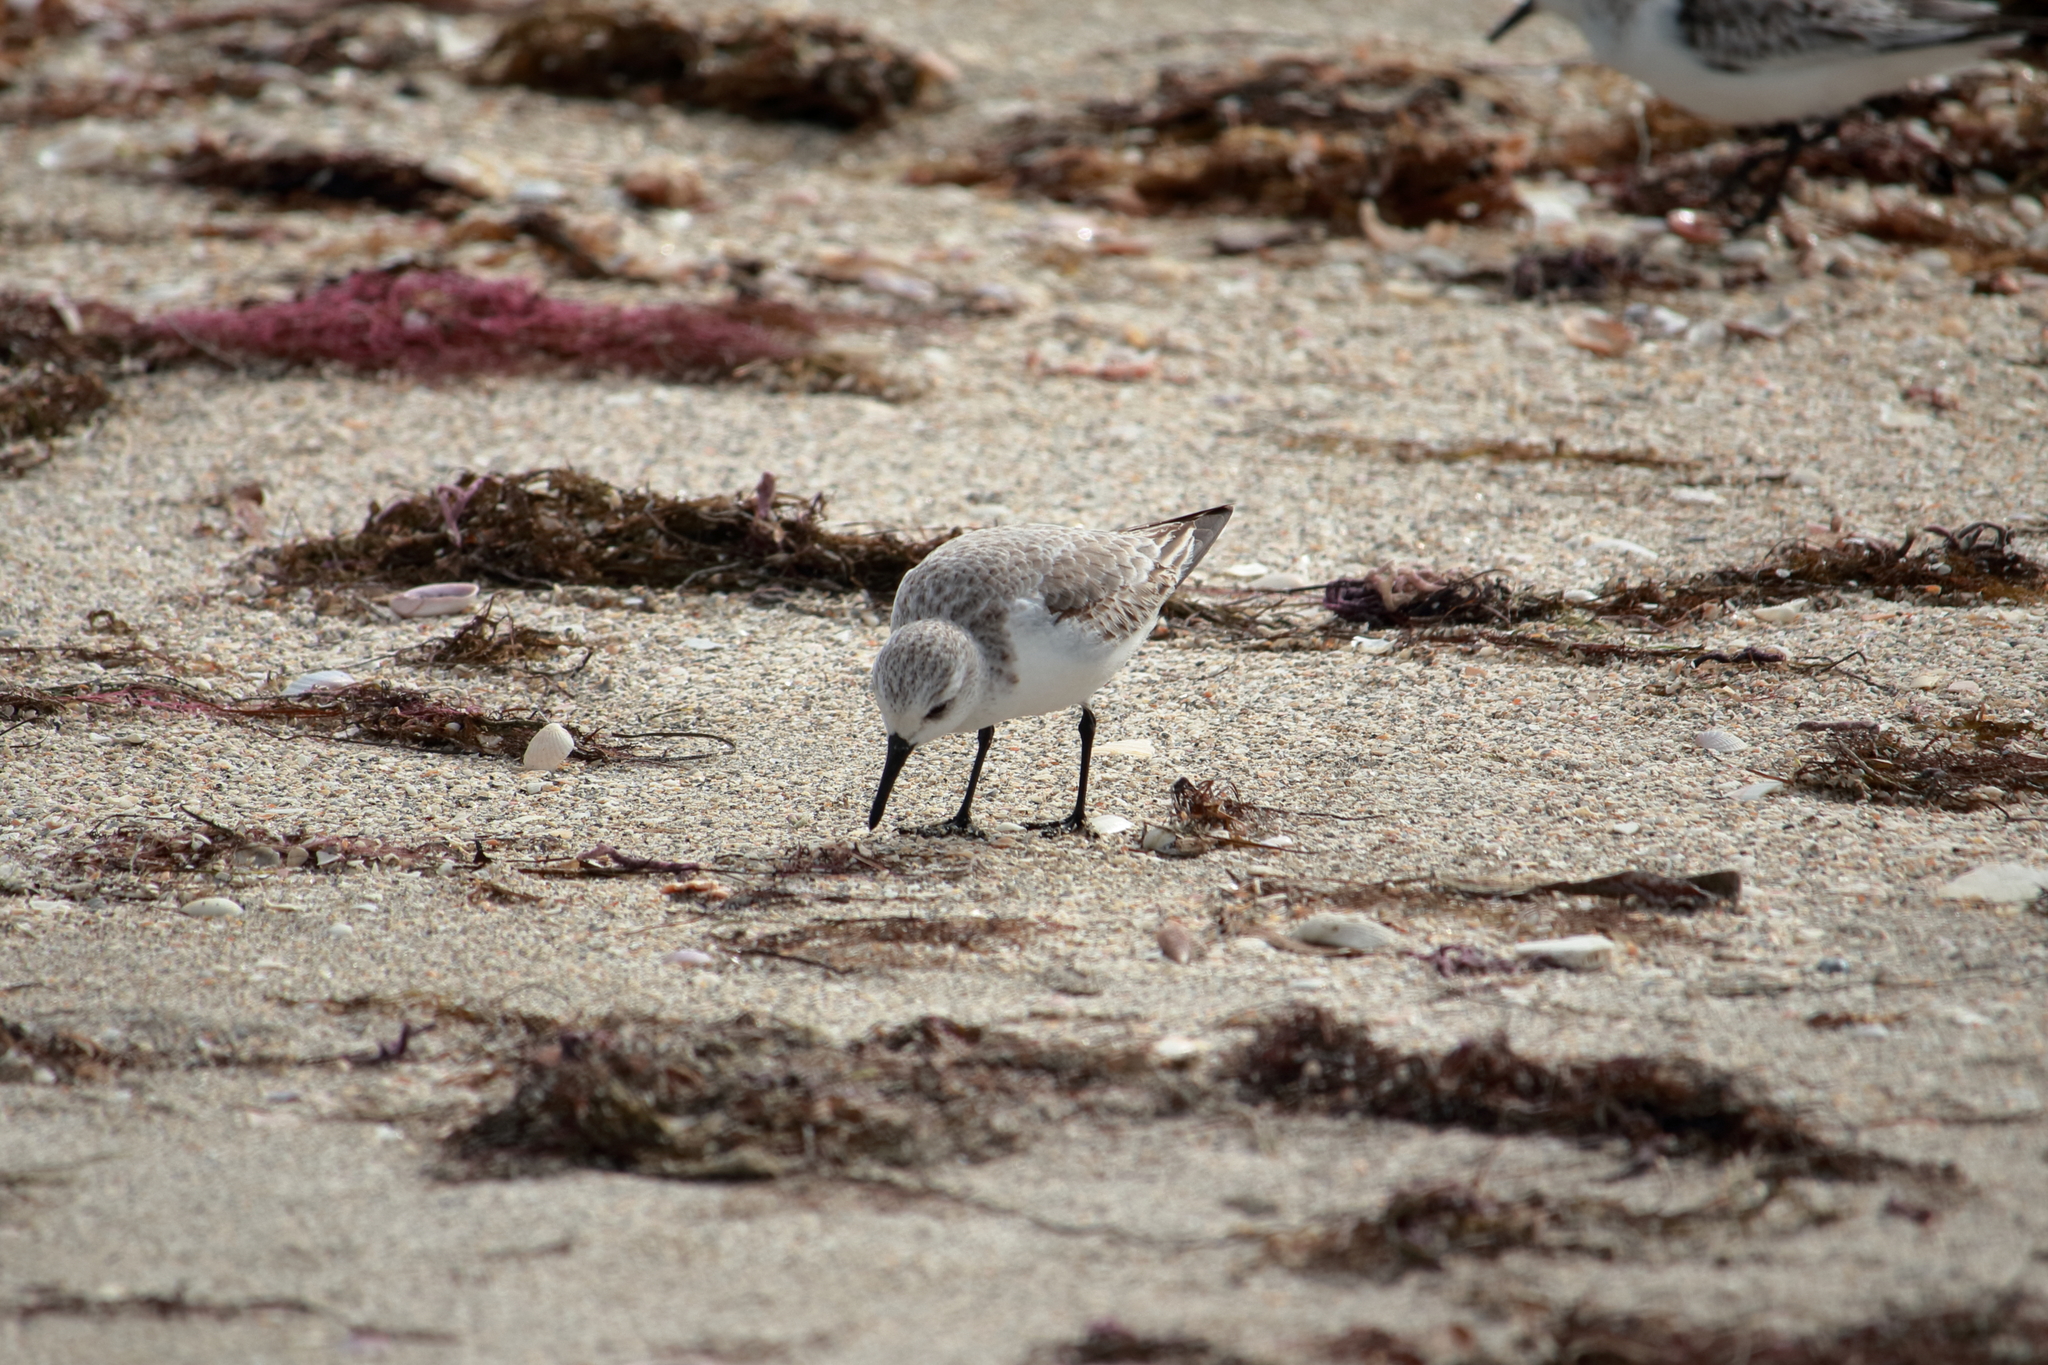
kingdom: Animalia
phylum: Chordata
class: Aves
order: Charadriiformes
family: Scolopacidae
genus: Calidris
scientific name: Calidris alba
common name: Sanderling
